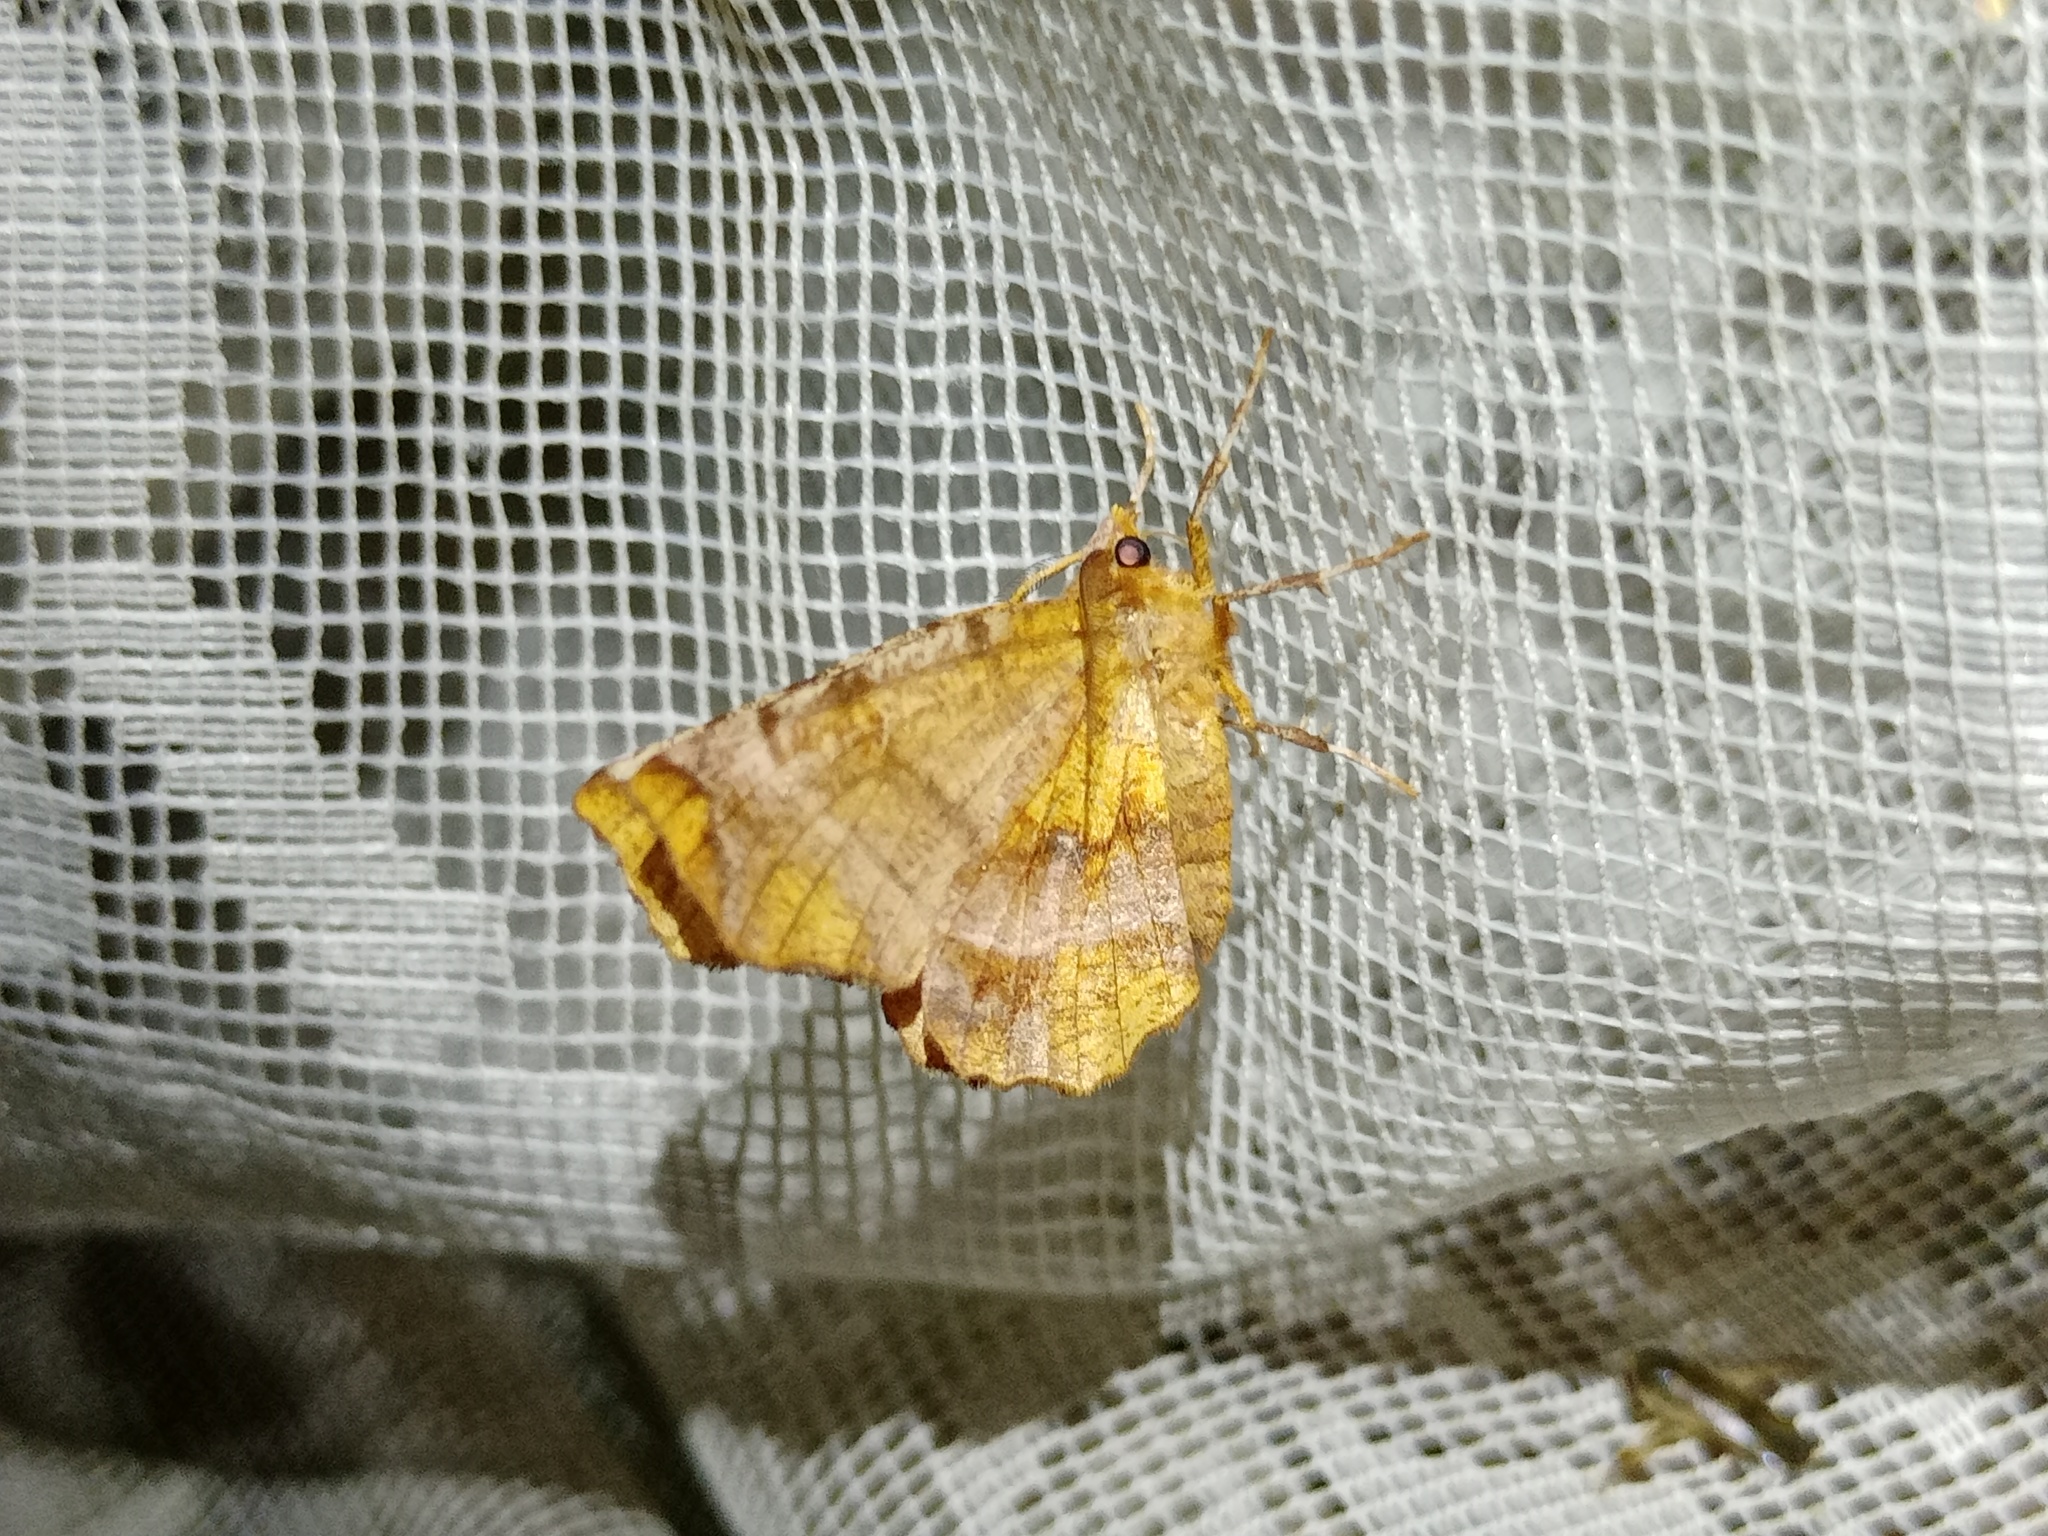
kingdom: Animalia
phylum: Arthropoda
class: Insecta
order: Lepidoptera
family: Geometridae
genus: Selenia
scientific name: Selenia dentaria
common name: Early thorn
